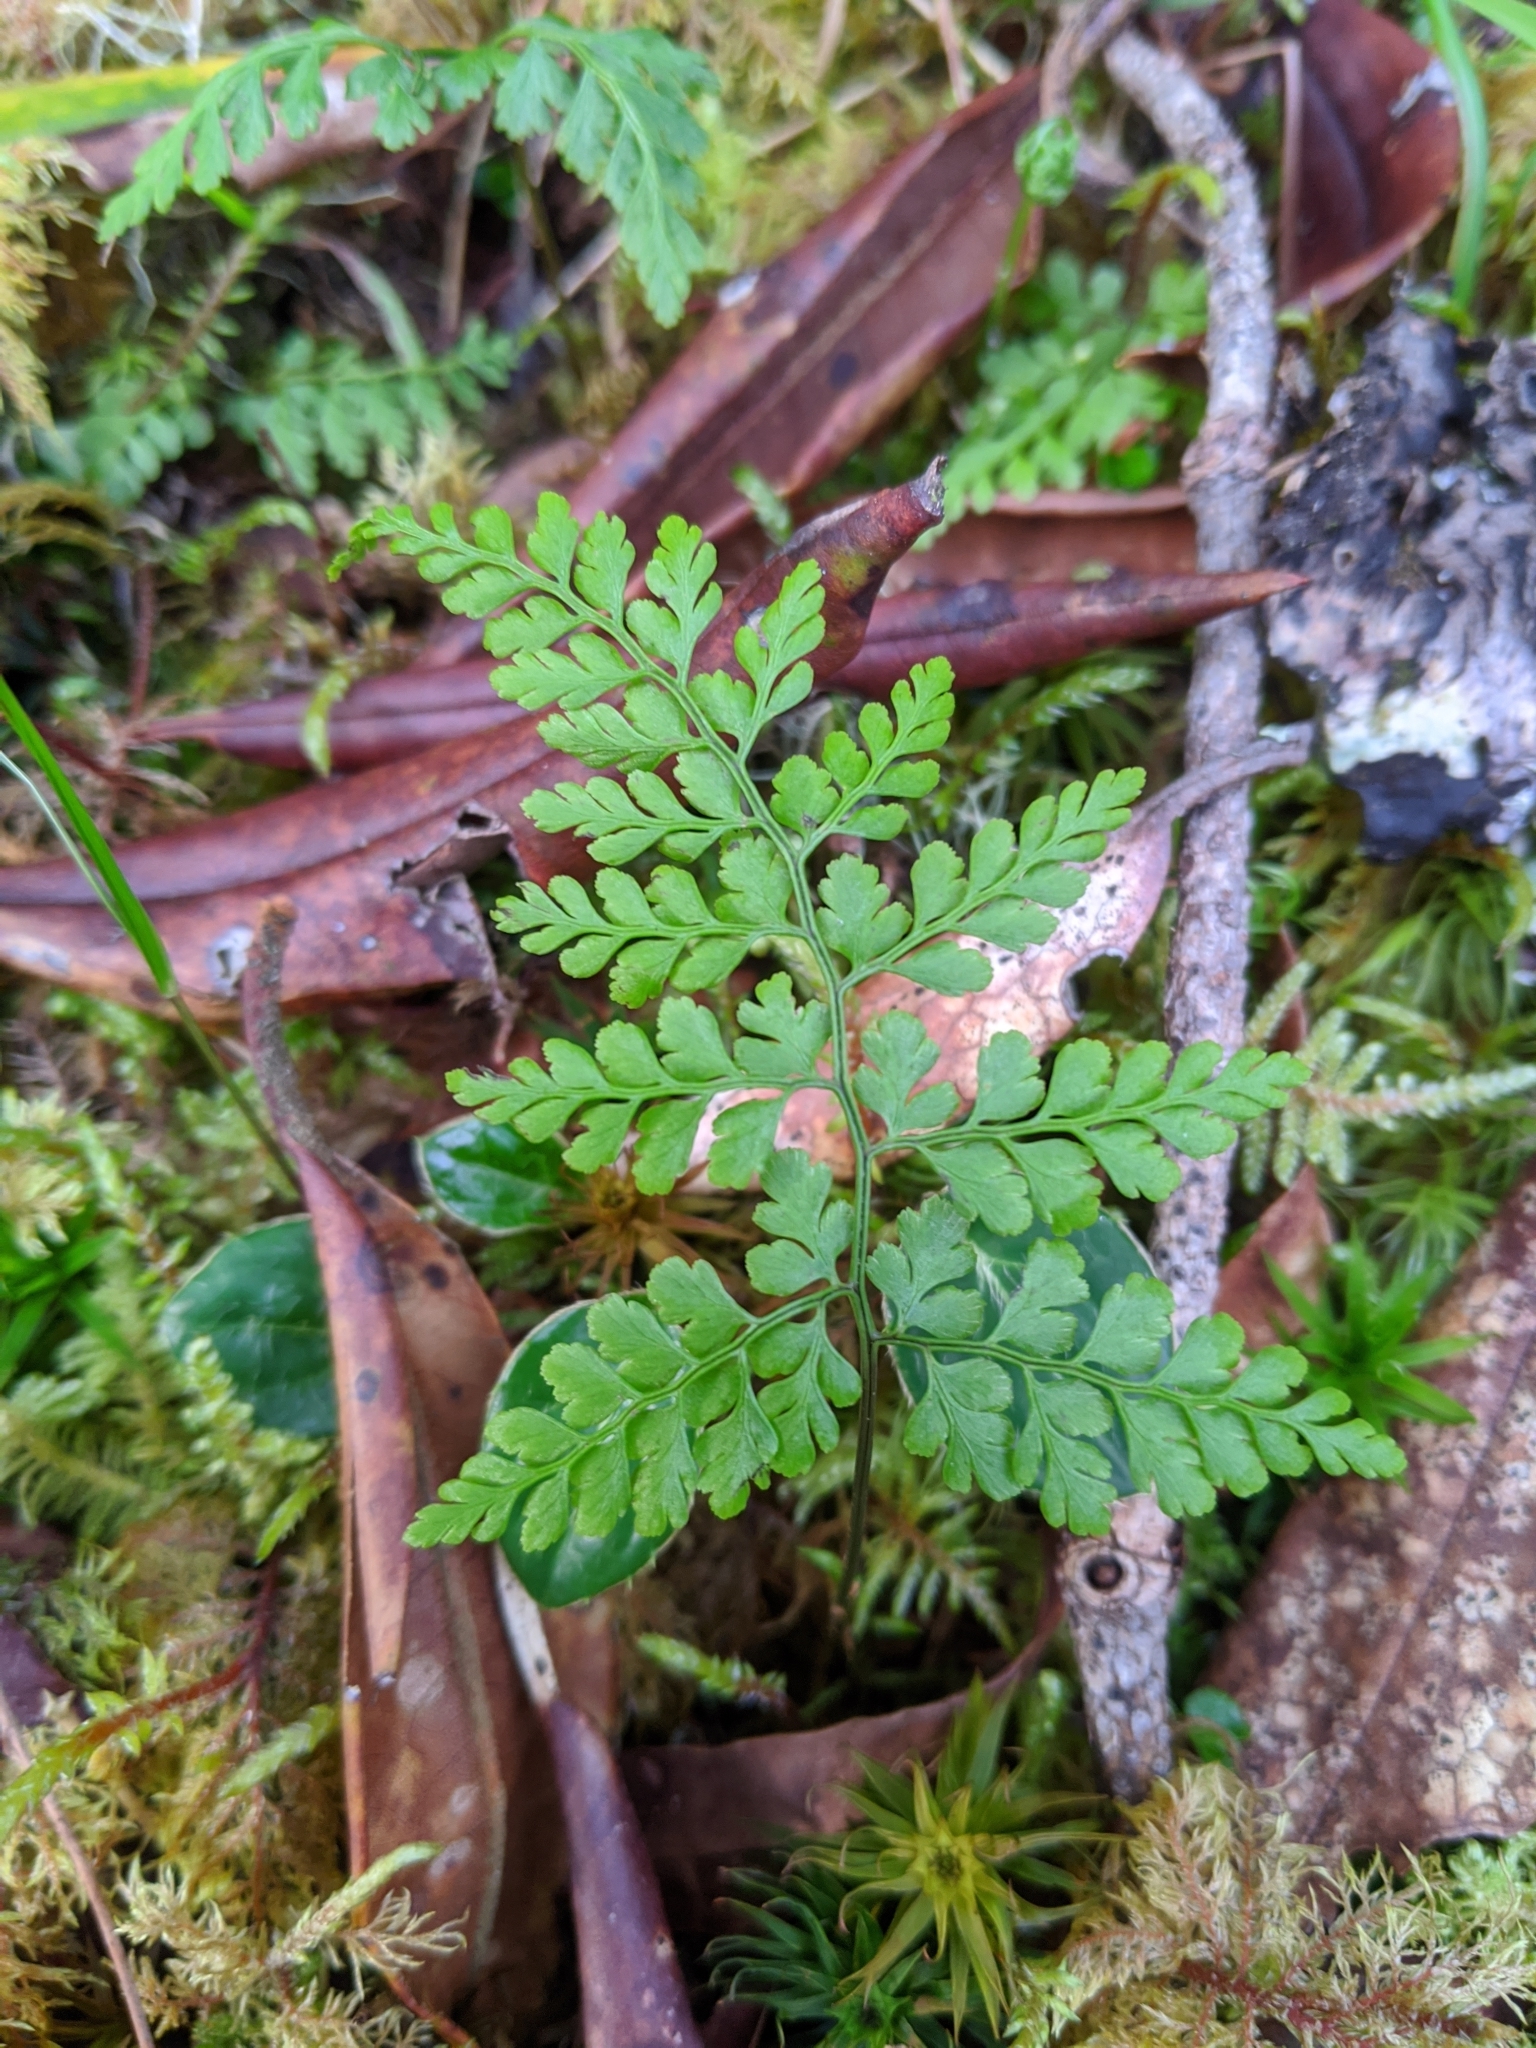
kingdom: Plantae
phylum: Tracheophyta
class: Polypodiopsida
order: Polypodiales
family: Cystopteridaceae
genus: Cystopteris
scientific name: Cystopteris moupinensis
